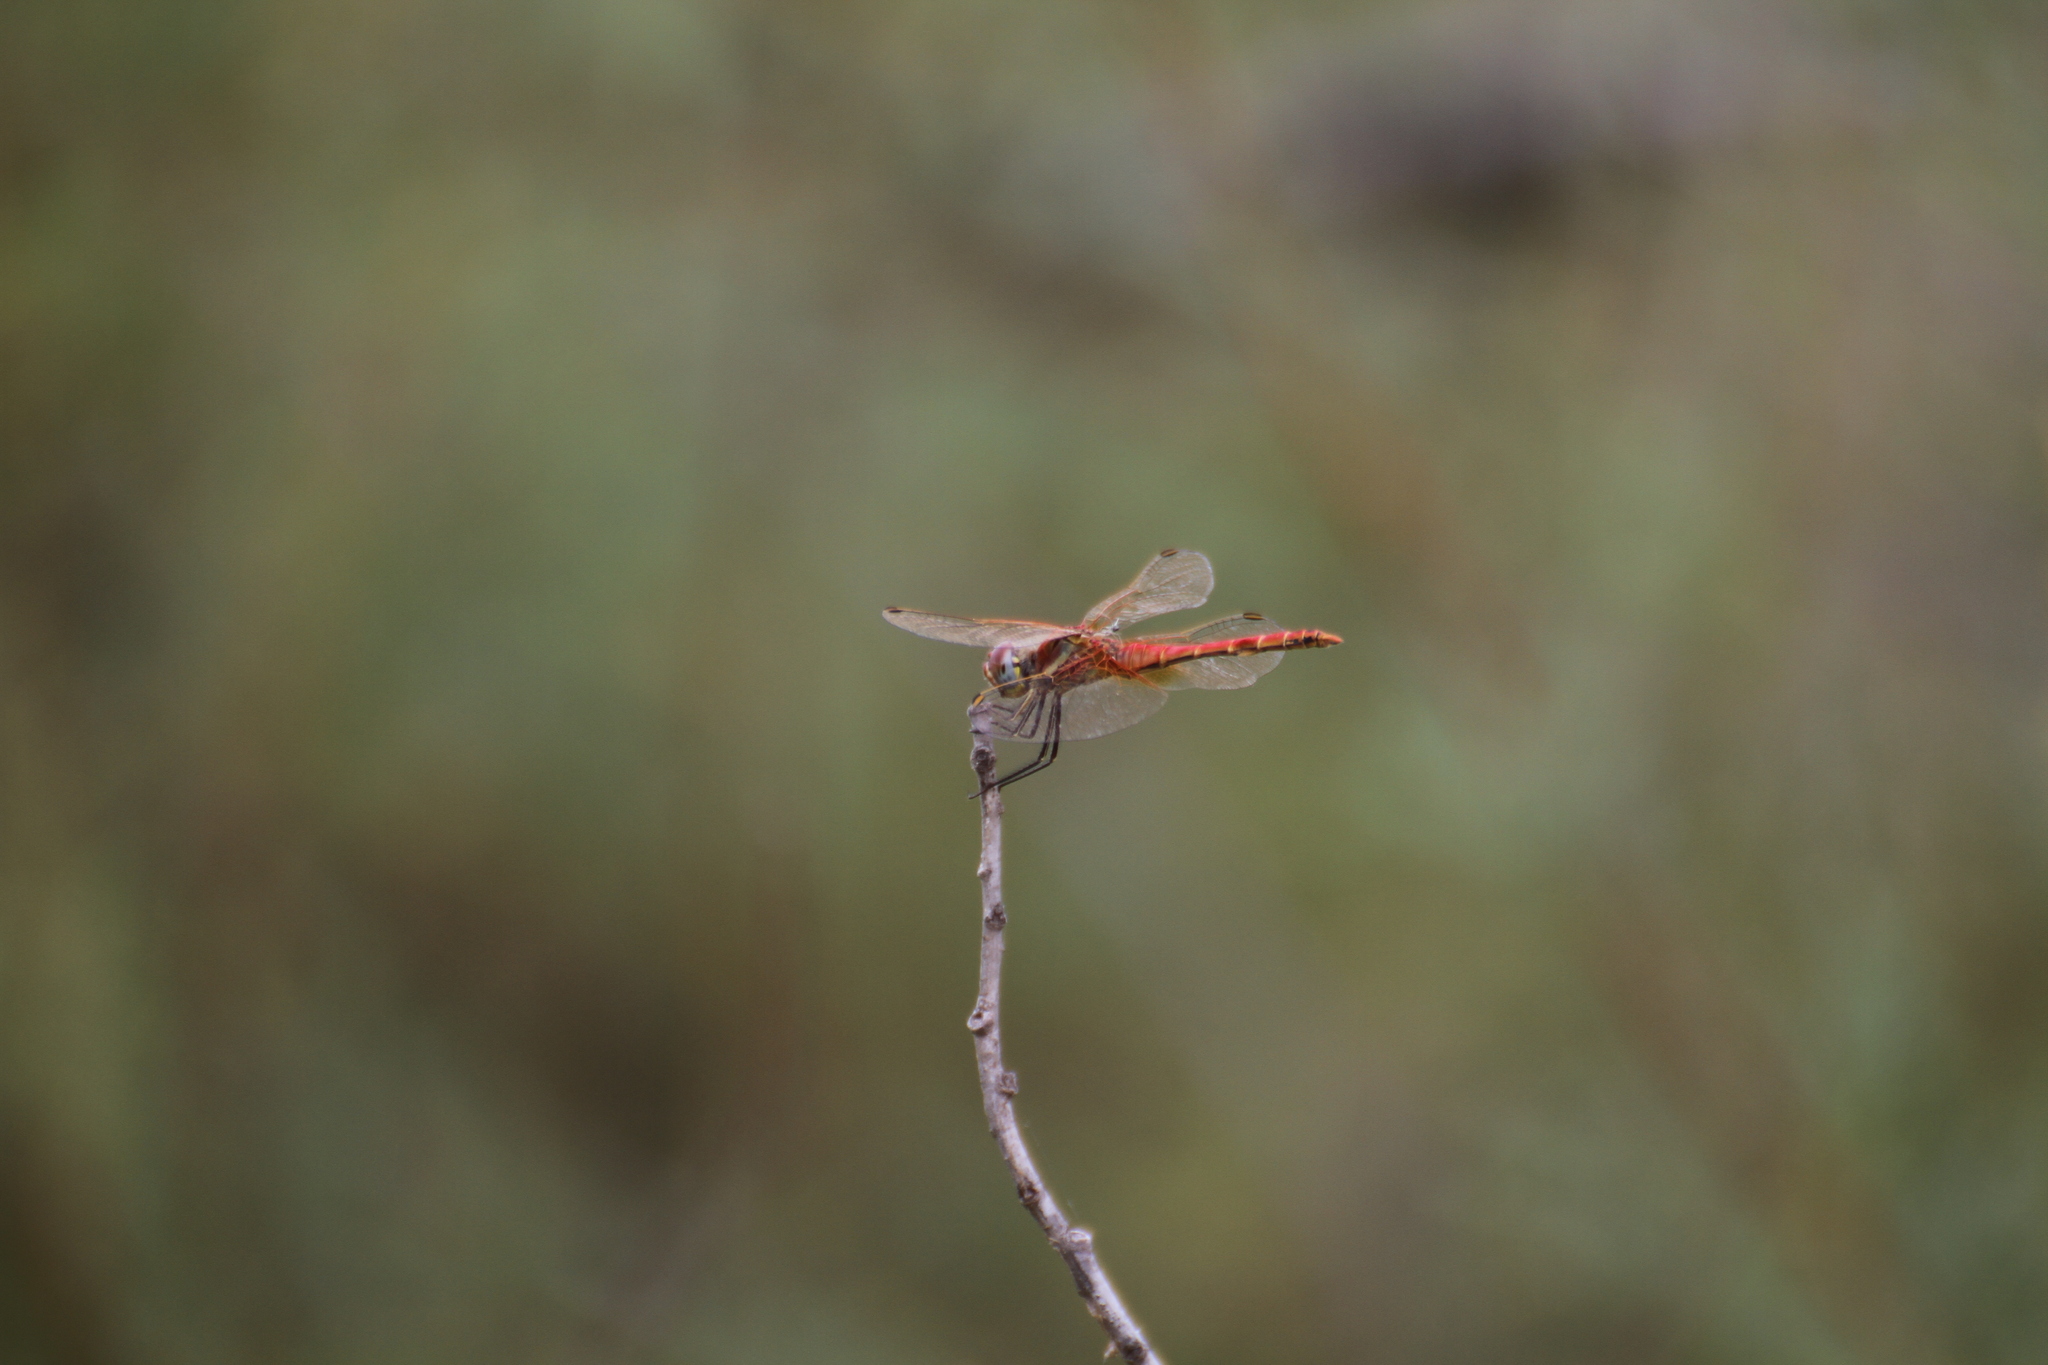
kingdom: Animalia
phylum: Arthropoda
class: Insecta
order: Odonata
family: Libellulidae
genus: Sympetrum
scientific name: Sympetrum fonscolombii
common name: Red-veined darter
